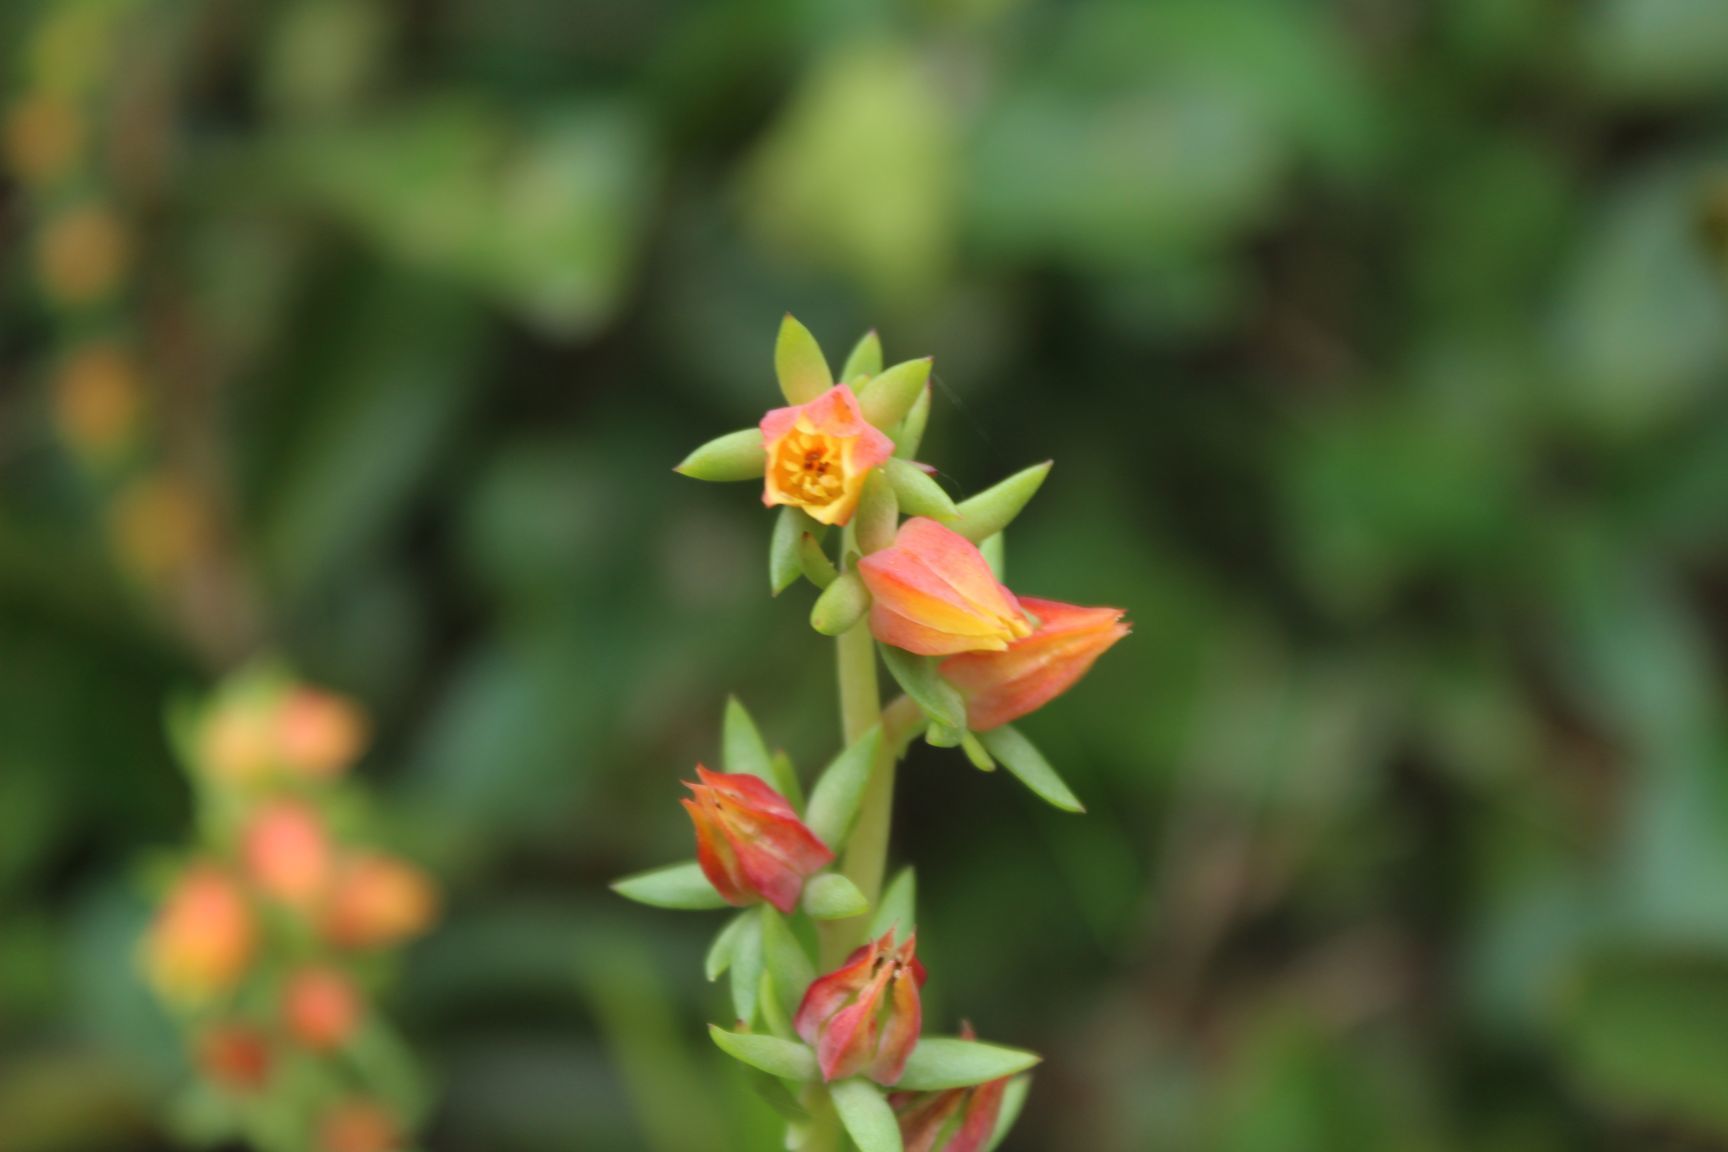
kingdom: Plantae
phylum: Tracheophyta
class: Magnoliopsida
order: Saxifragales
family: Crassulaceae
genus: Echeveria
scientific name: Echeveria bicolor
